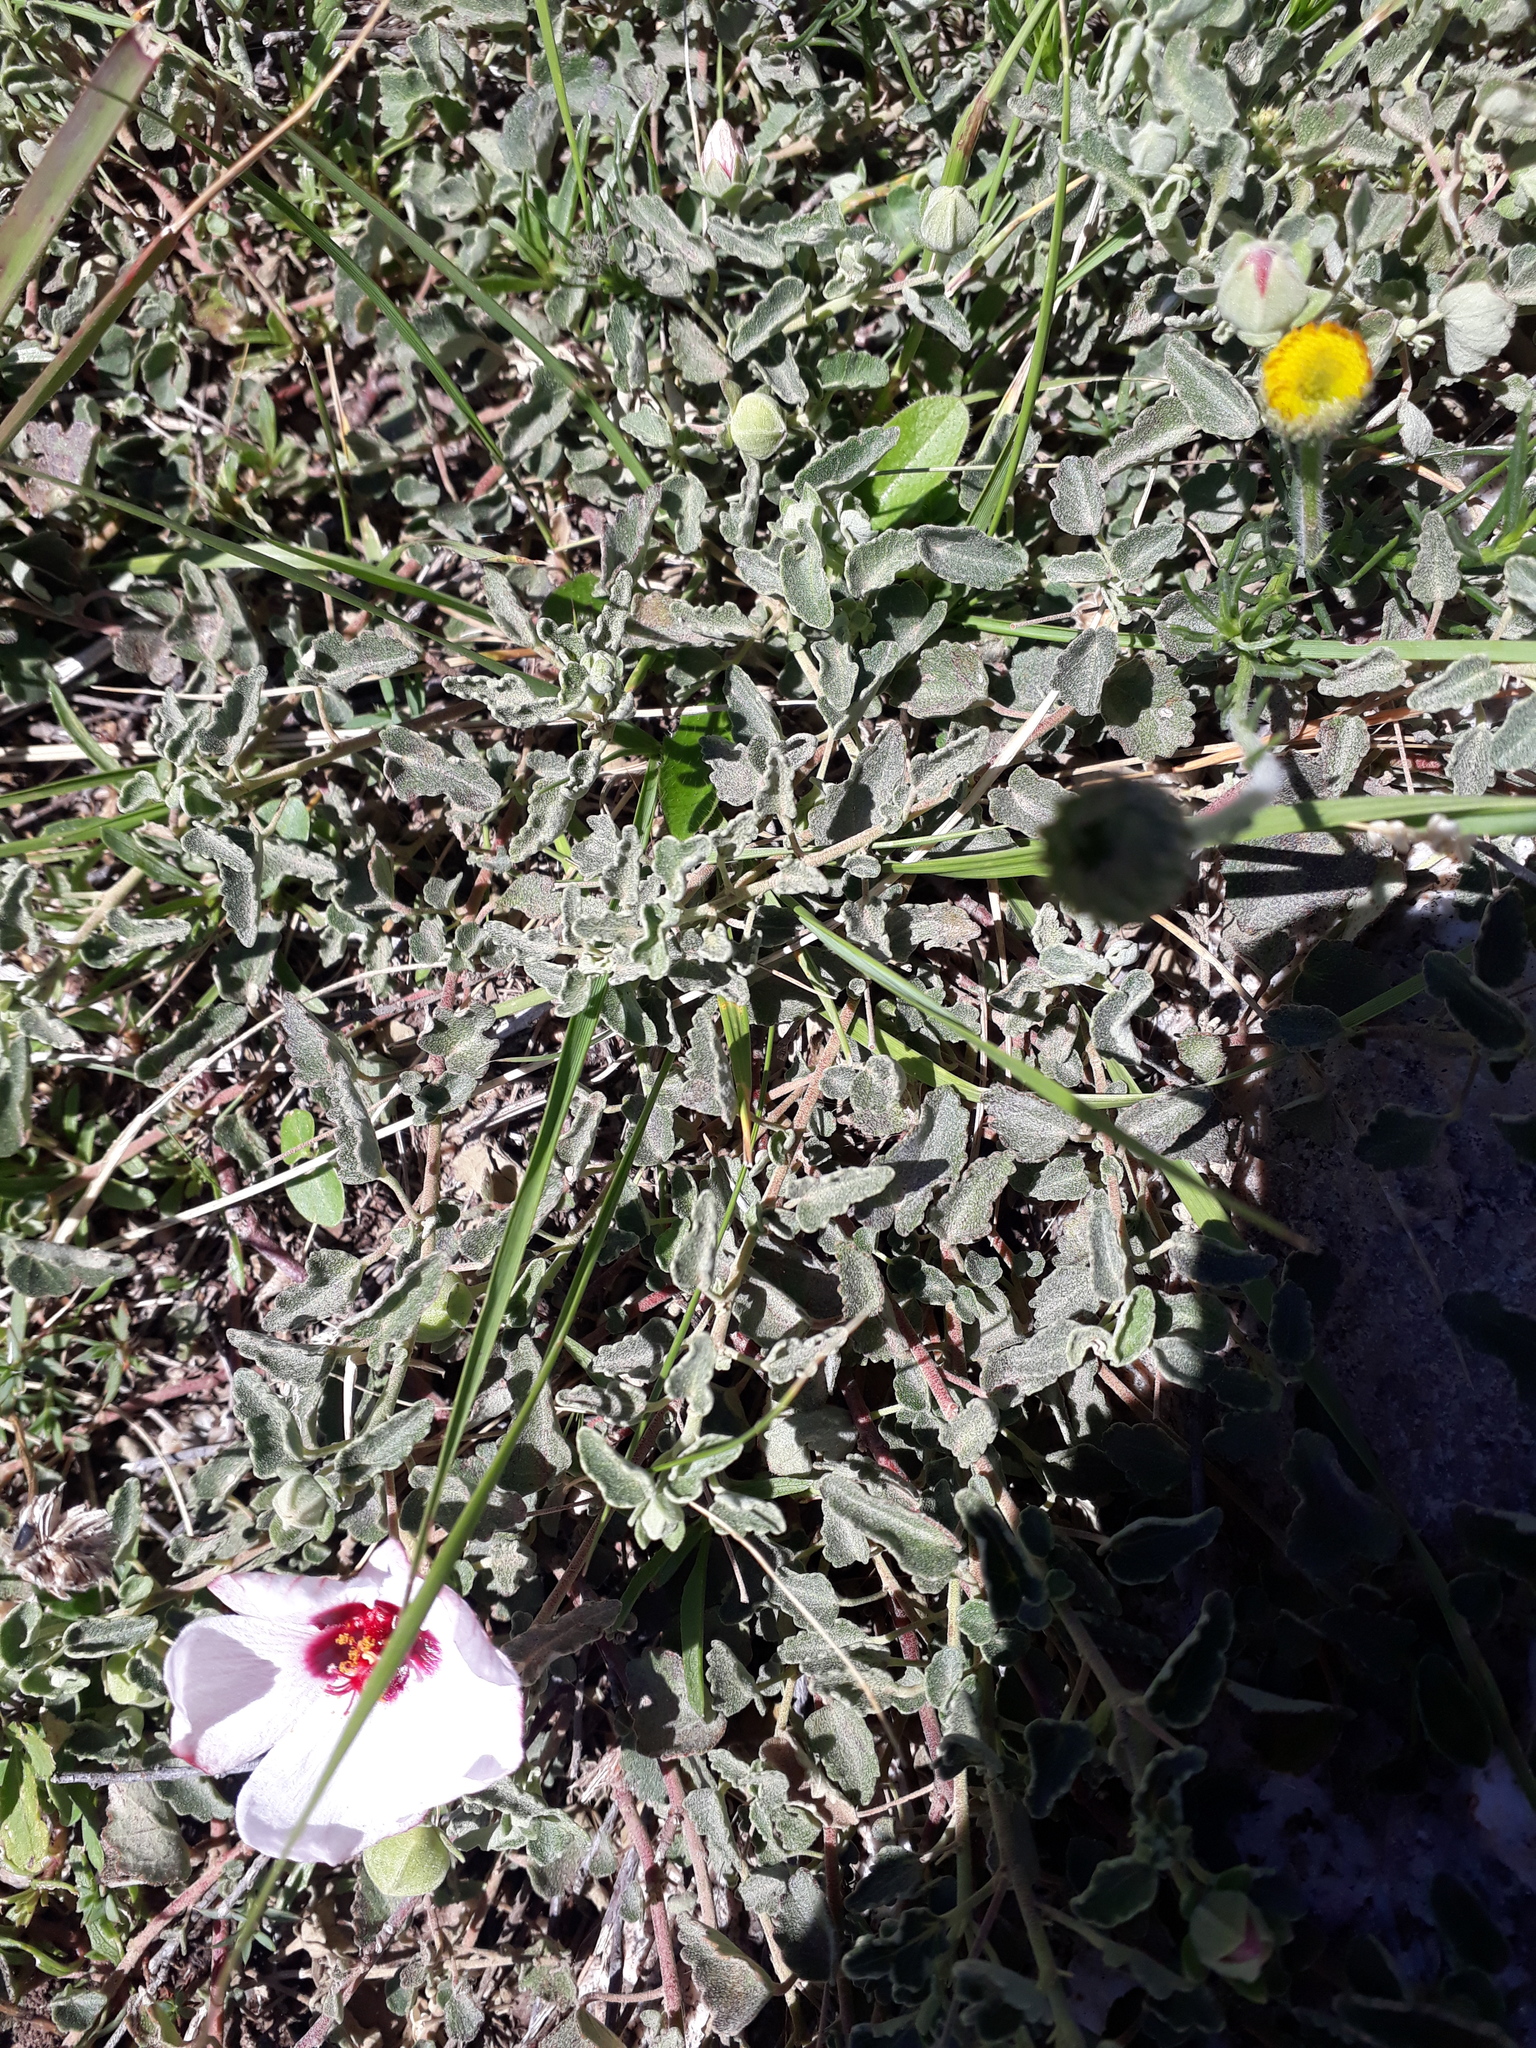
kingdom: Plantae
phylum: Tracheophyta
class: Magnoliopsida
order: Malvales
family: Malvaceae
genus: Pavonia
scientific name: Pavonia cymbalaria
